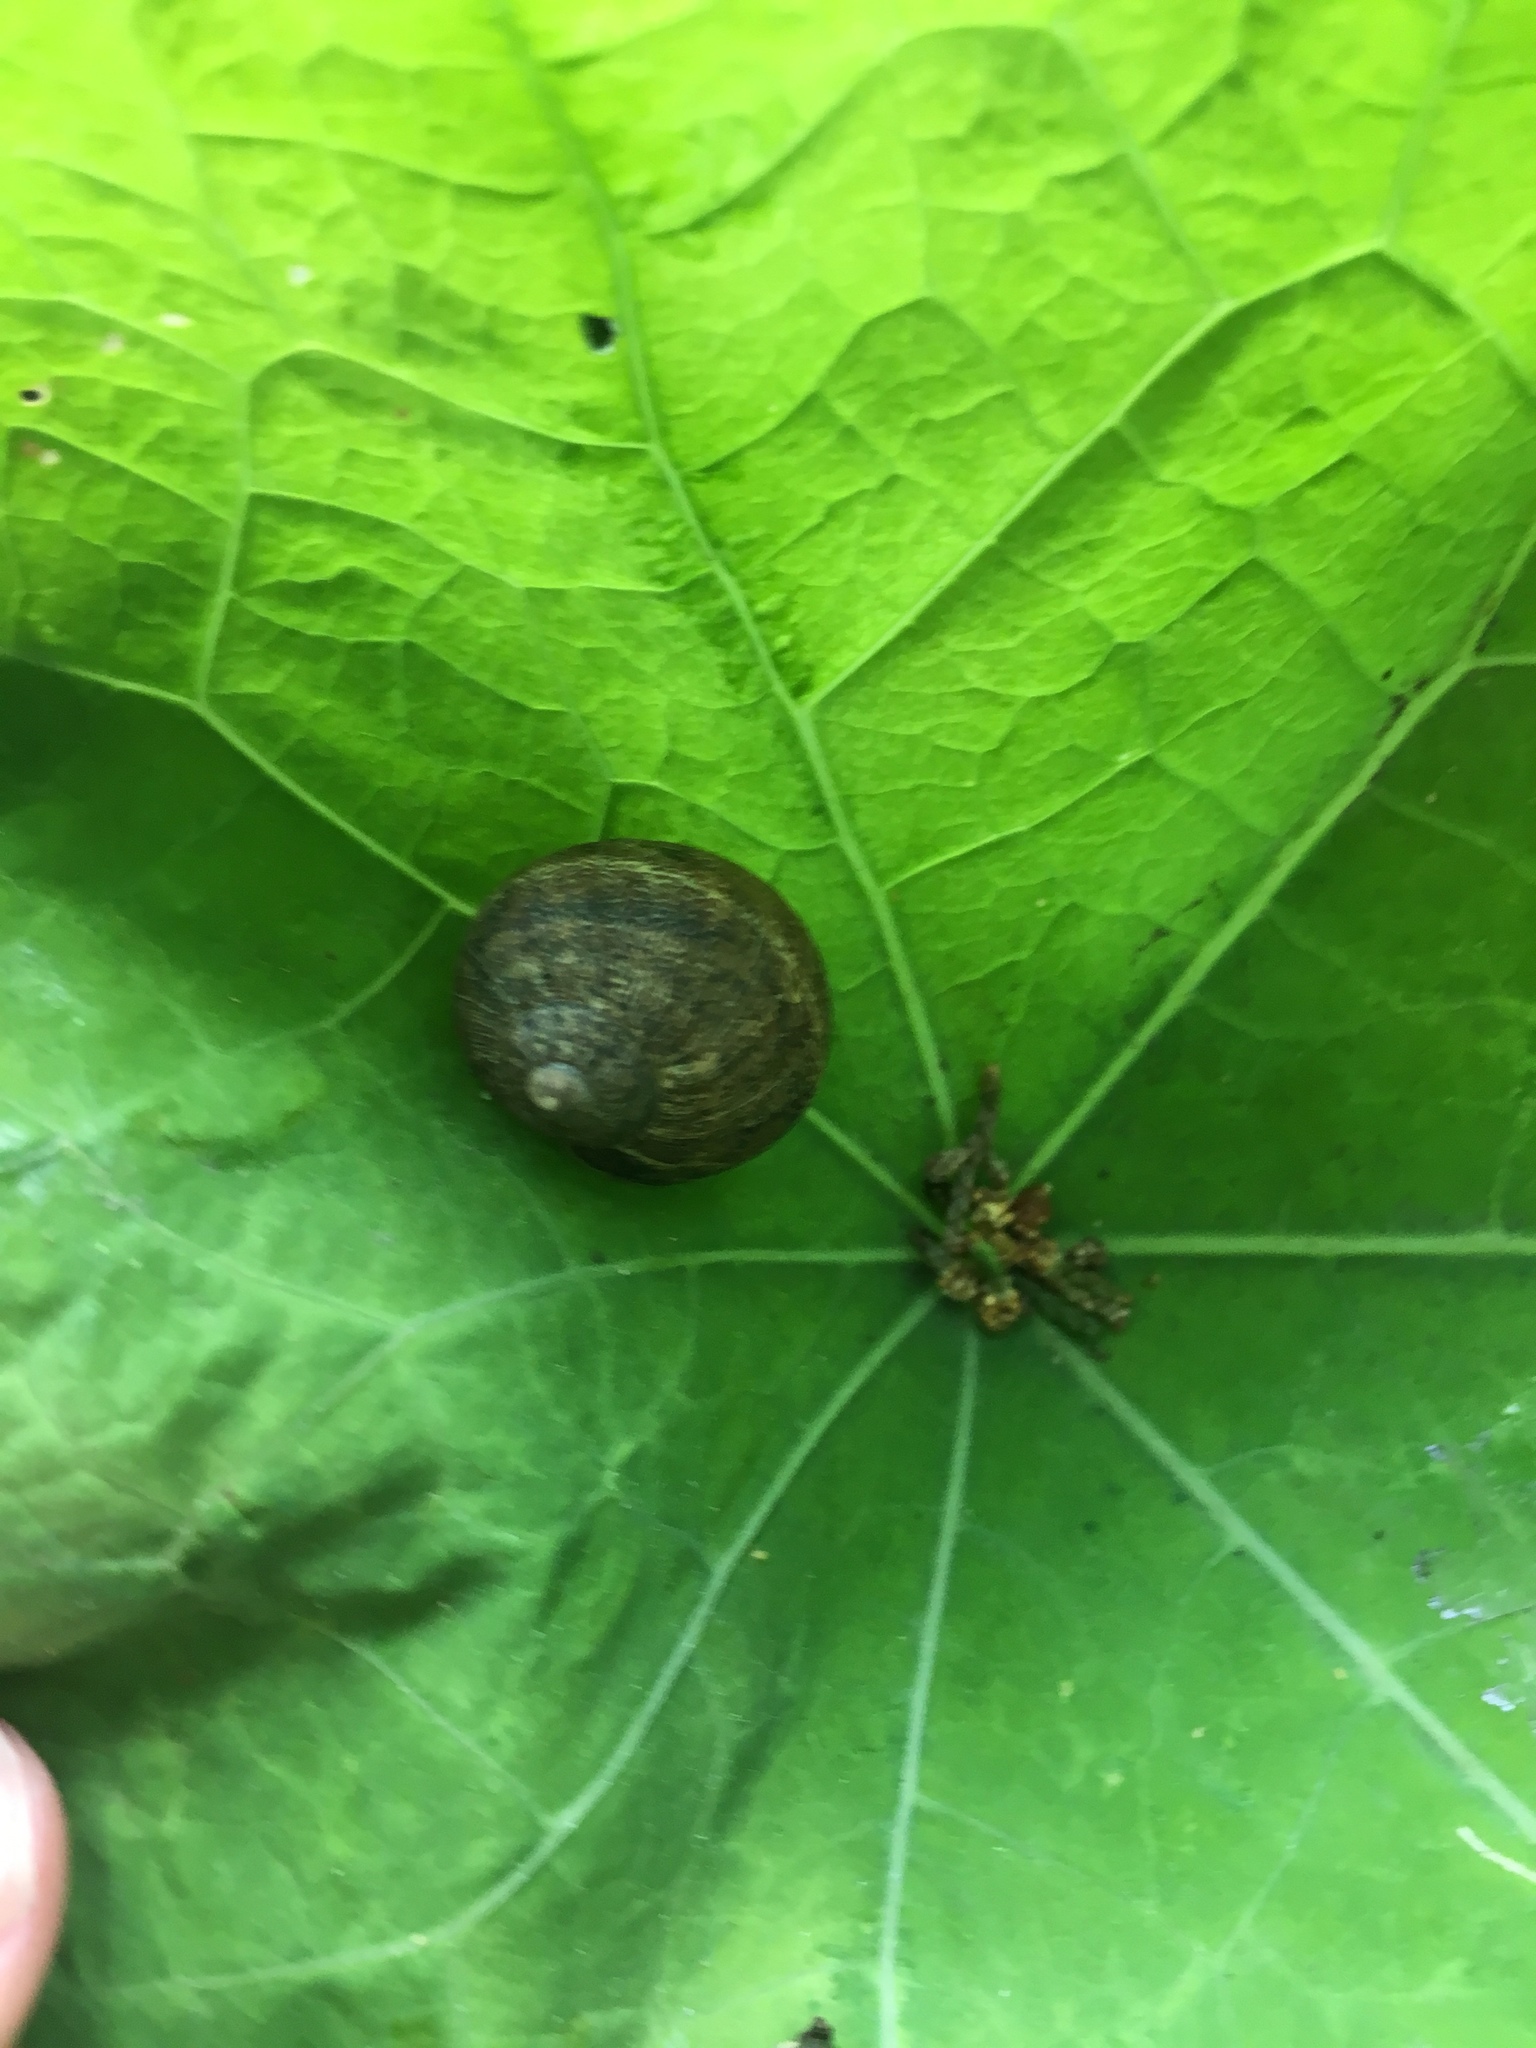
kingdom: Animalia
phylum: Mollusca
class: Gastropoda
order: Stylommatophora
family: Helicidae
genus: Cornu
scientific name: Cornu aspersum
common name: Brown garden snail
